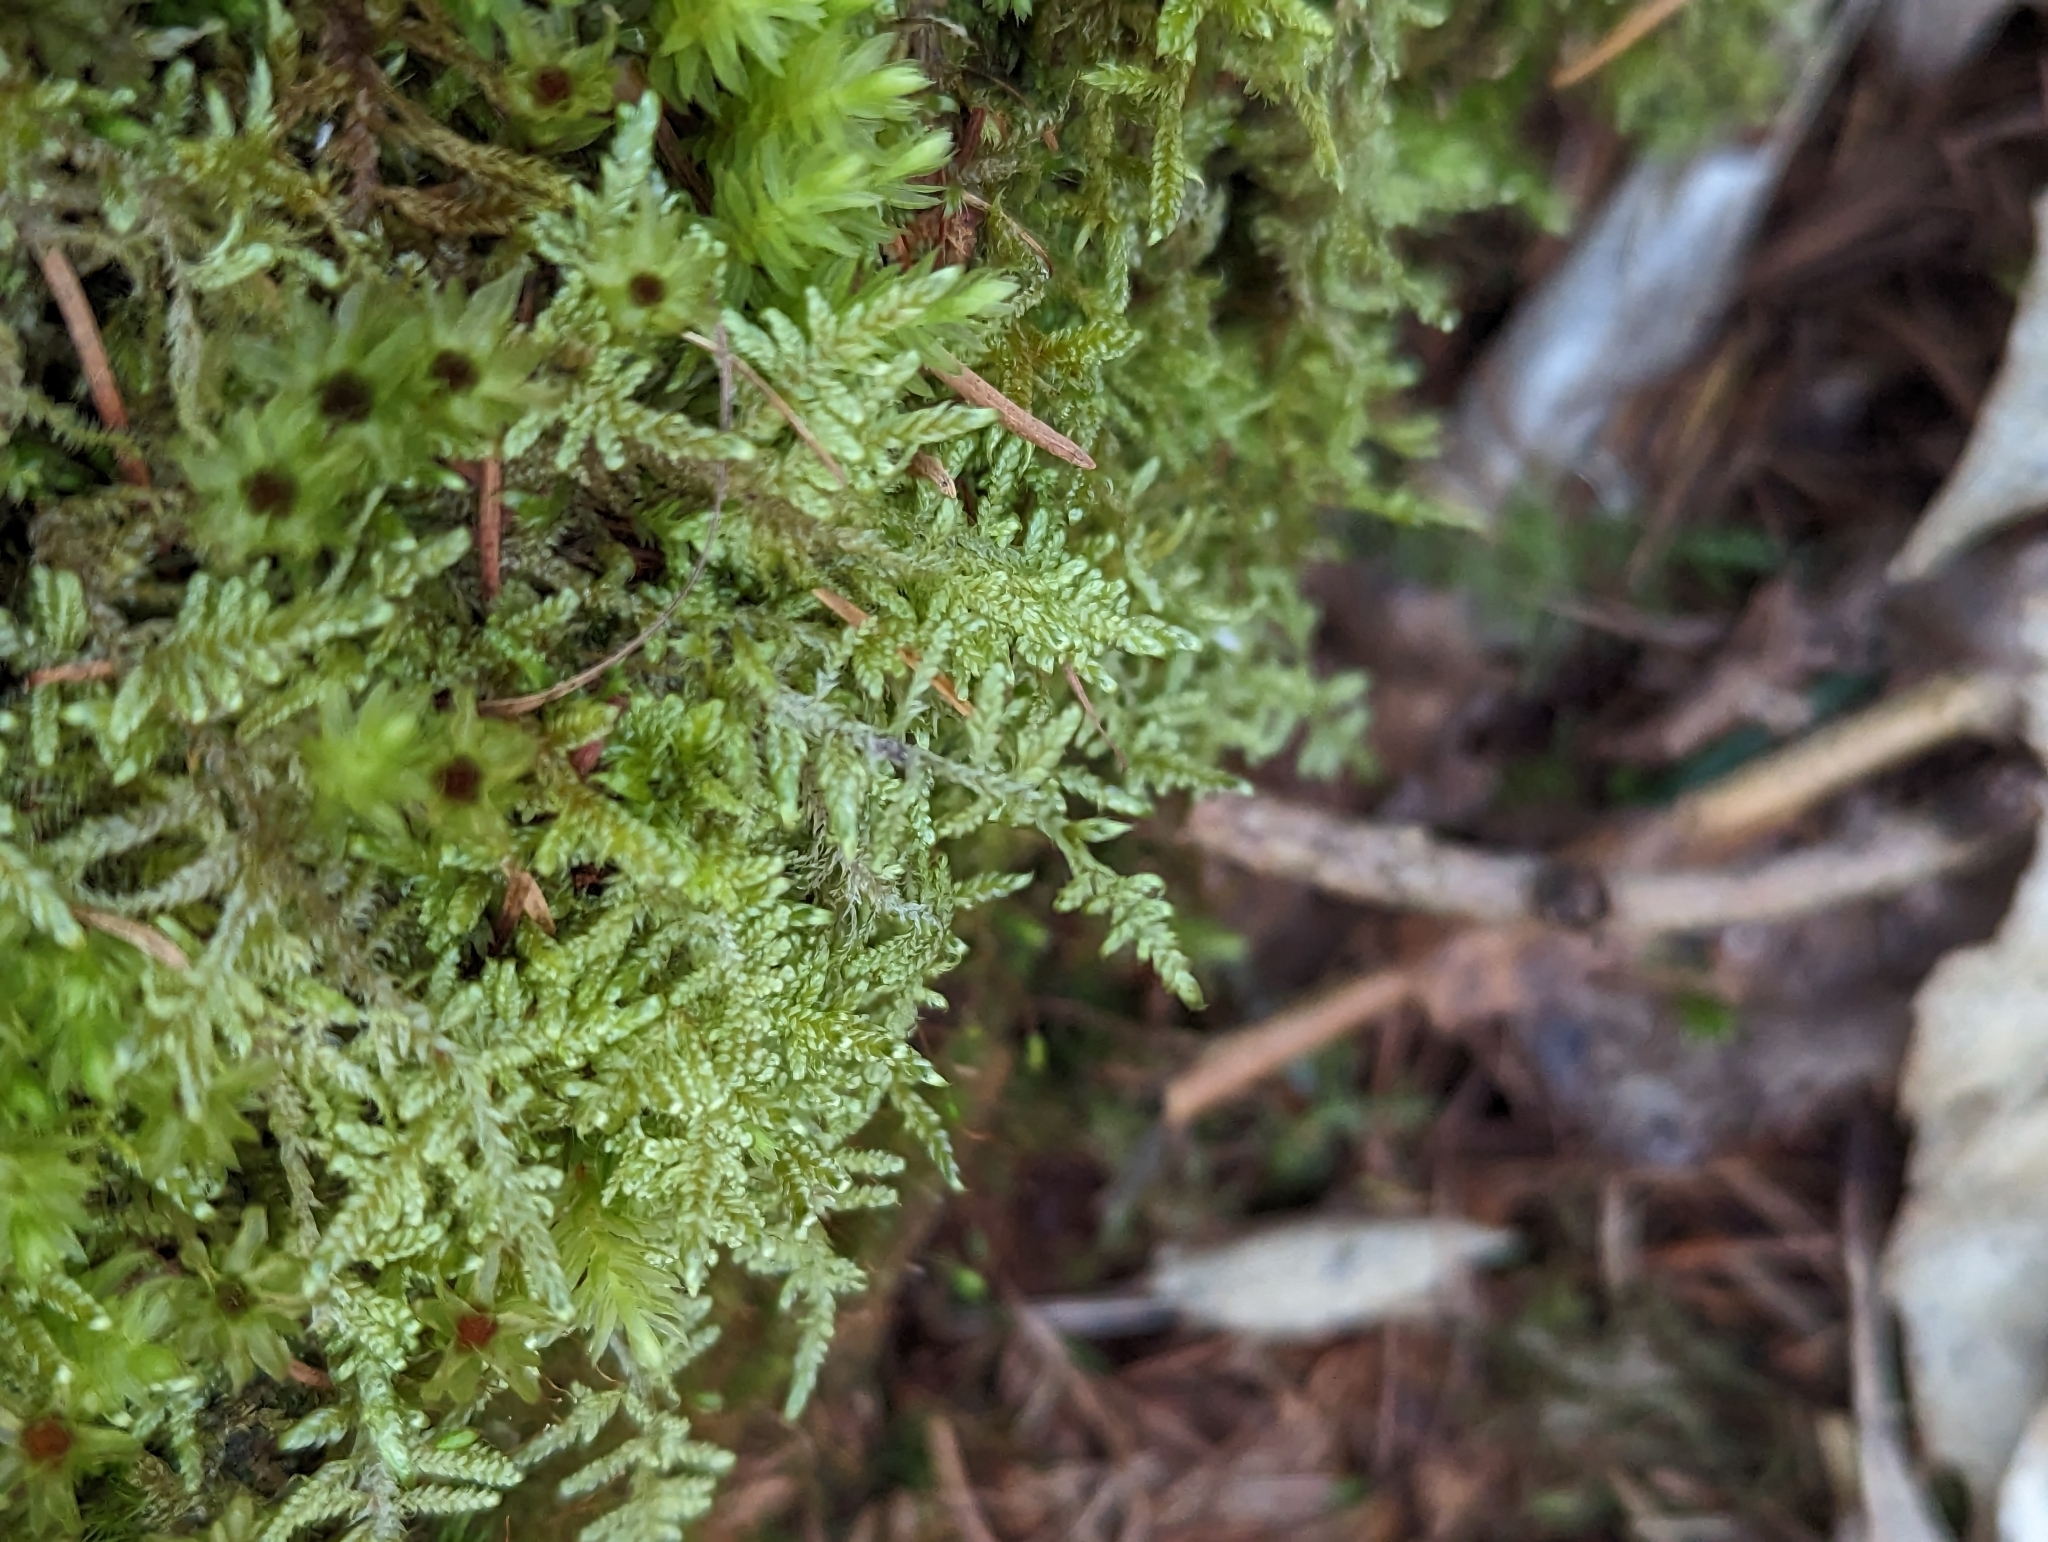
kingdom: Plantae
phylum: Bryophyta
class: Bryopsida
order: Hypnales
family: Hypnaceae
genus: Hypnum
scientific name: Hypnum jutlandicum
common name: Heath plait-moss
